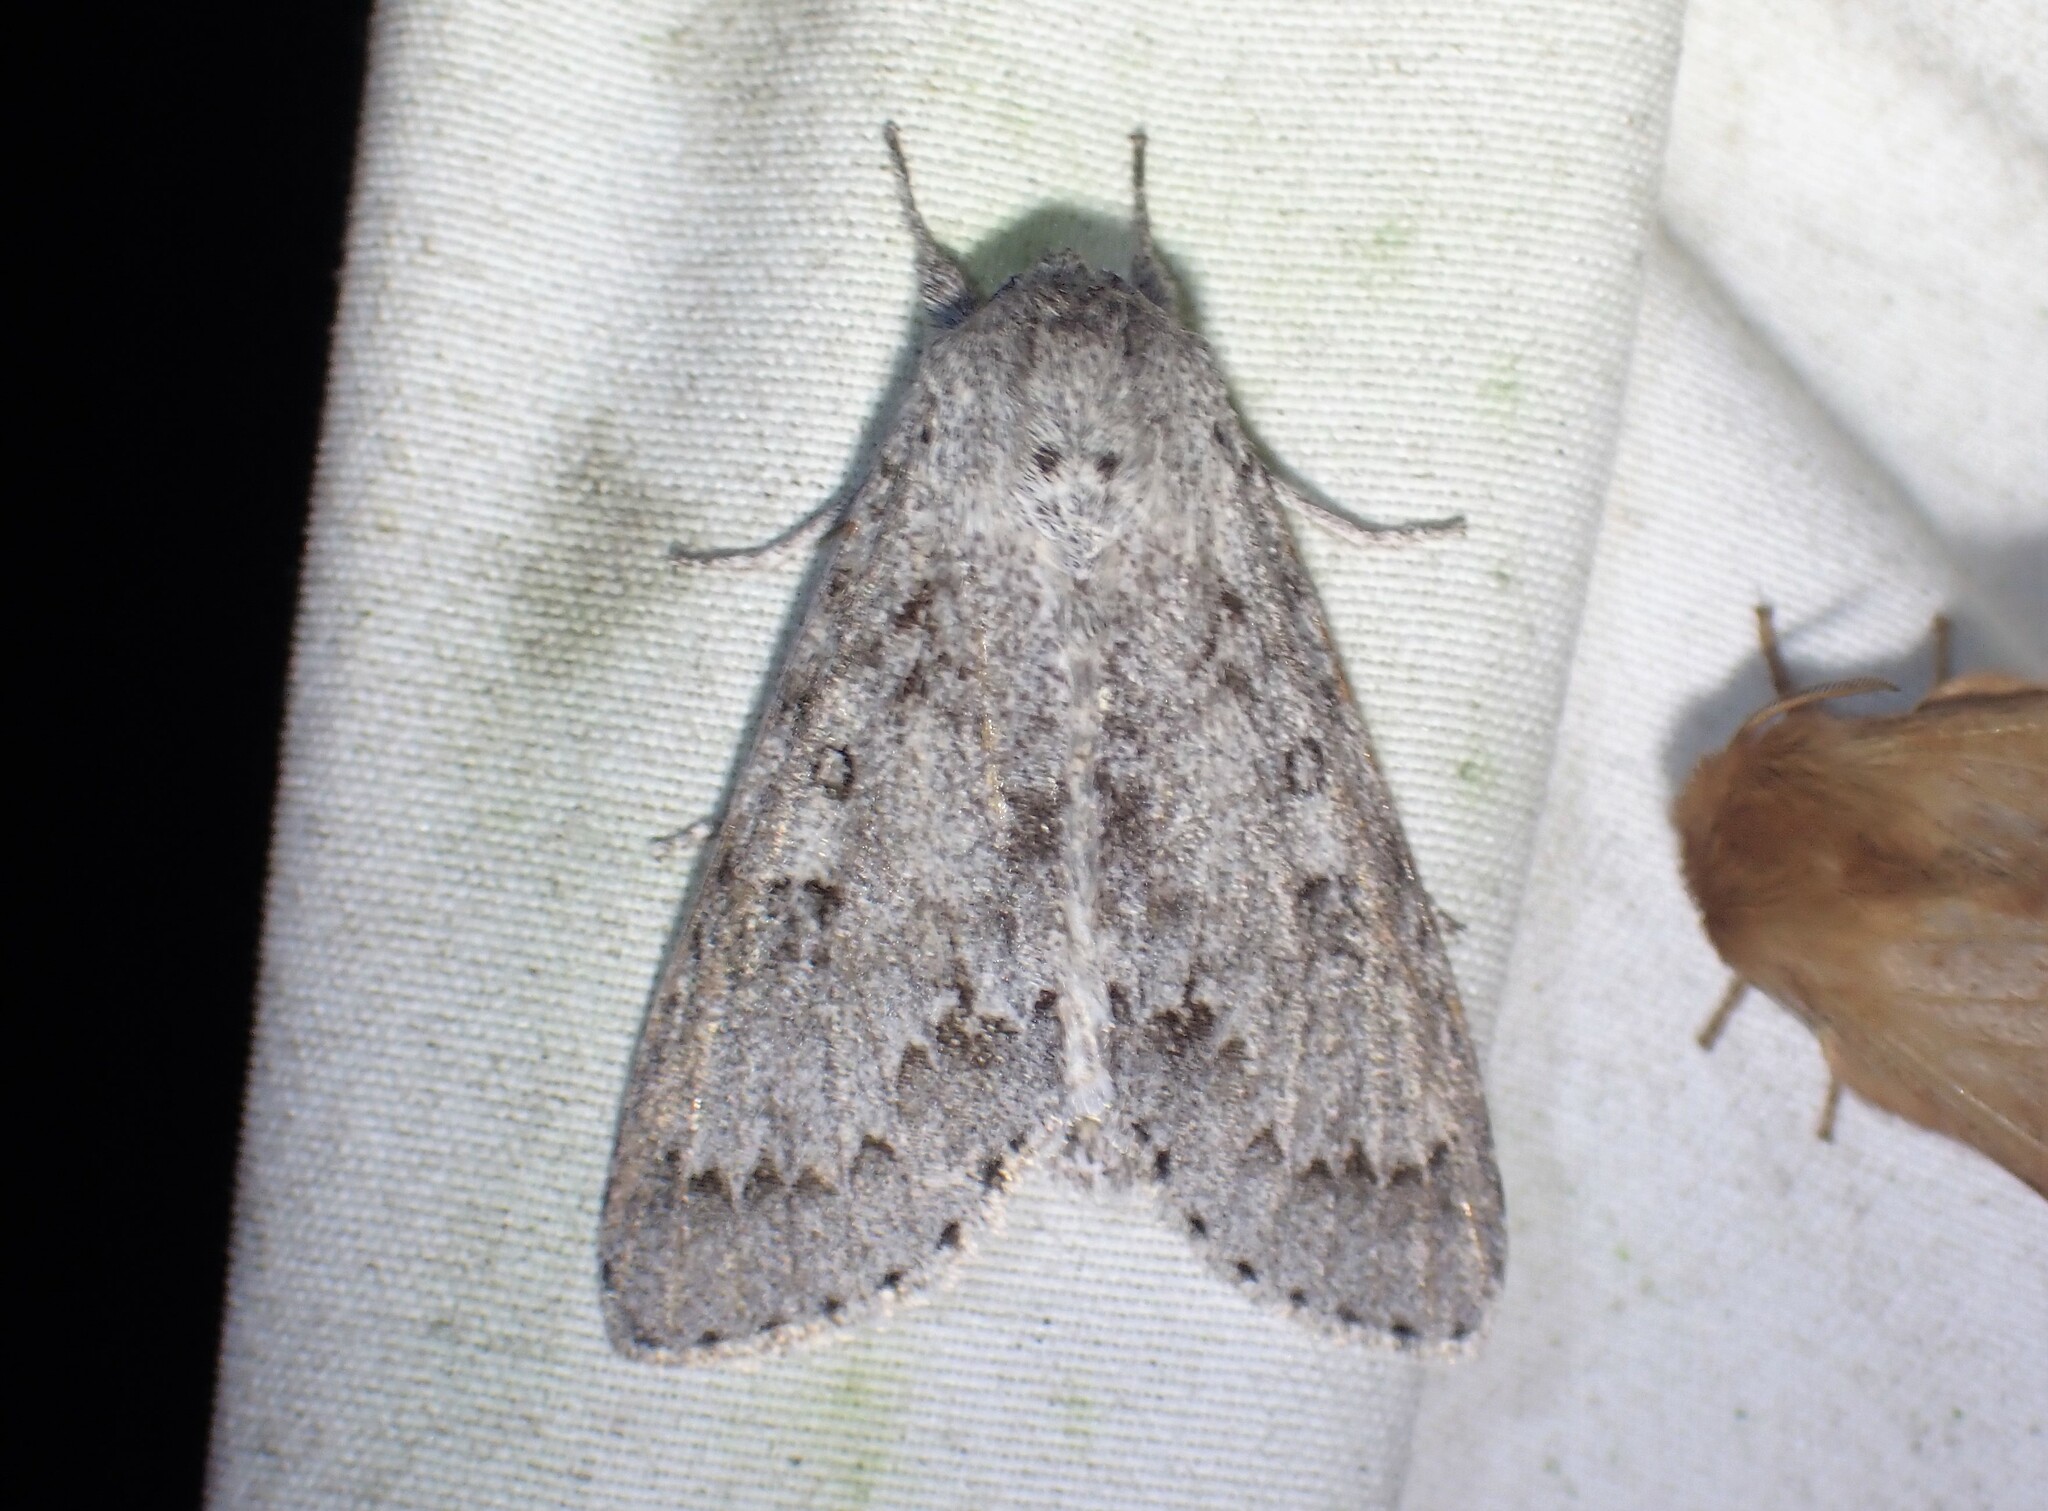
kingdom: Animalia
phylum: Arthropoda
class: Insecta
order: Lepidoptera
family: Noctuidae
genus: Acronicta
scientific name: Acronicta insita
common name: Large gray dagger
